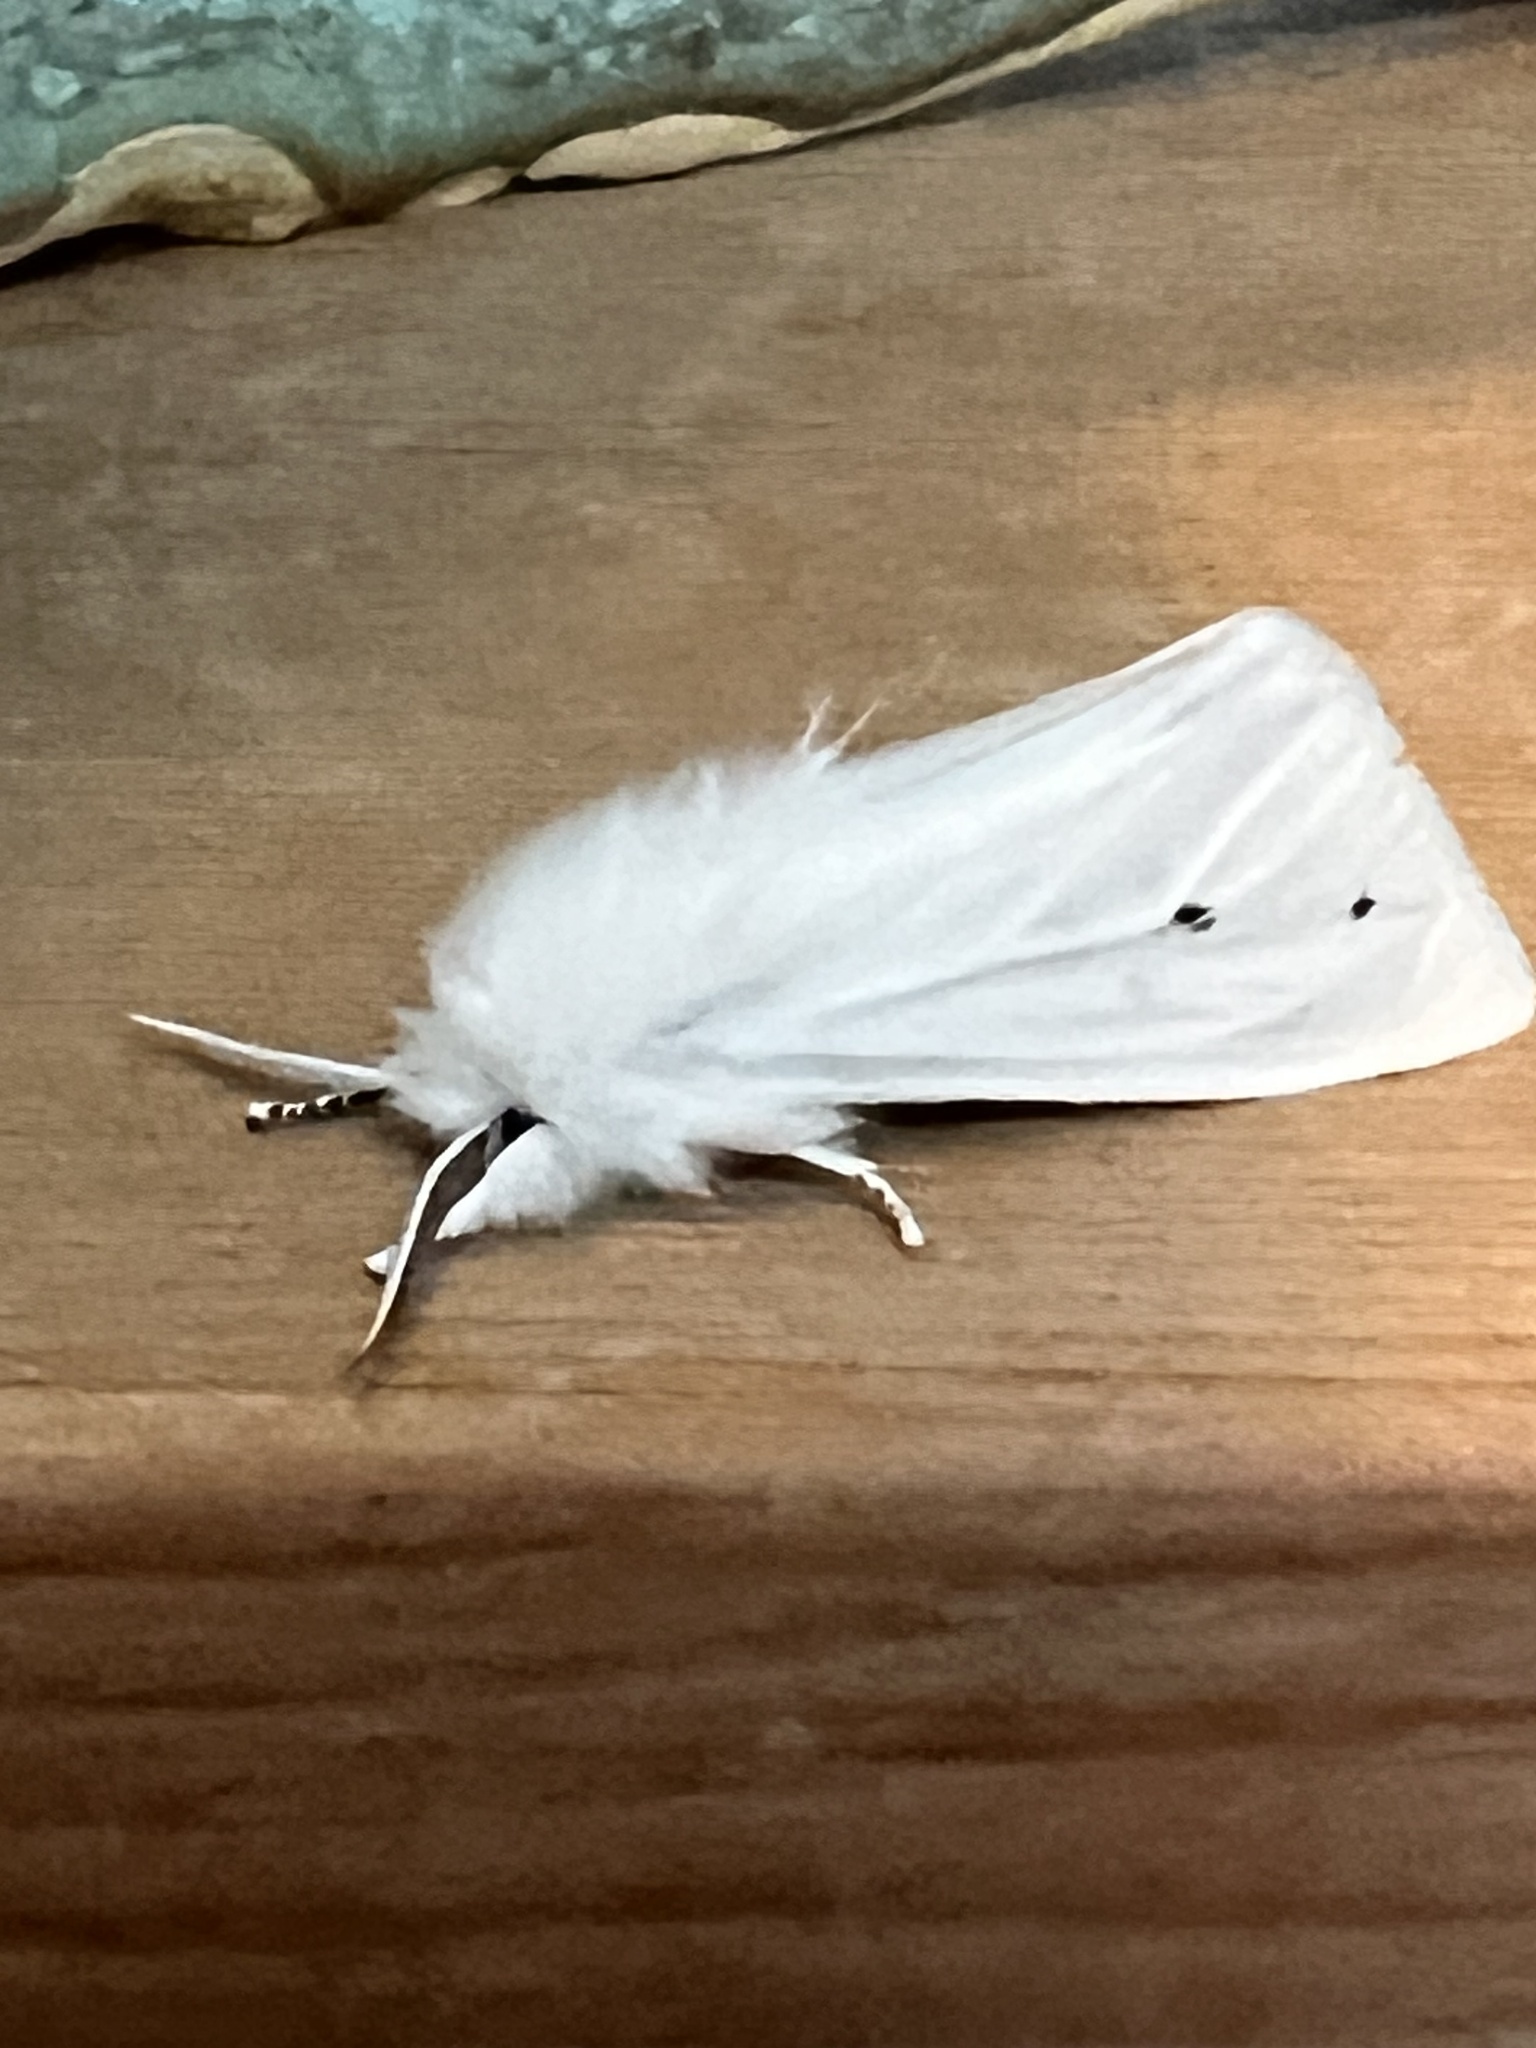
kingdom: Animalia
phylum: Arthropoda
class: Insecta
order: Lepidoptera
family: Erebidae
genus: Spilosoma
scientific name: Spilosoma virginica
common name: Virginia tiger moth
